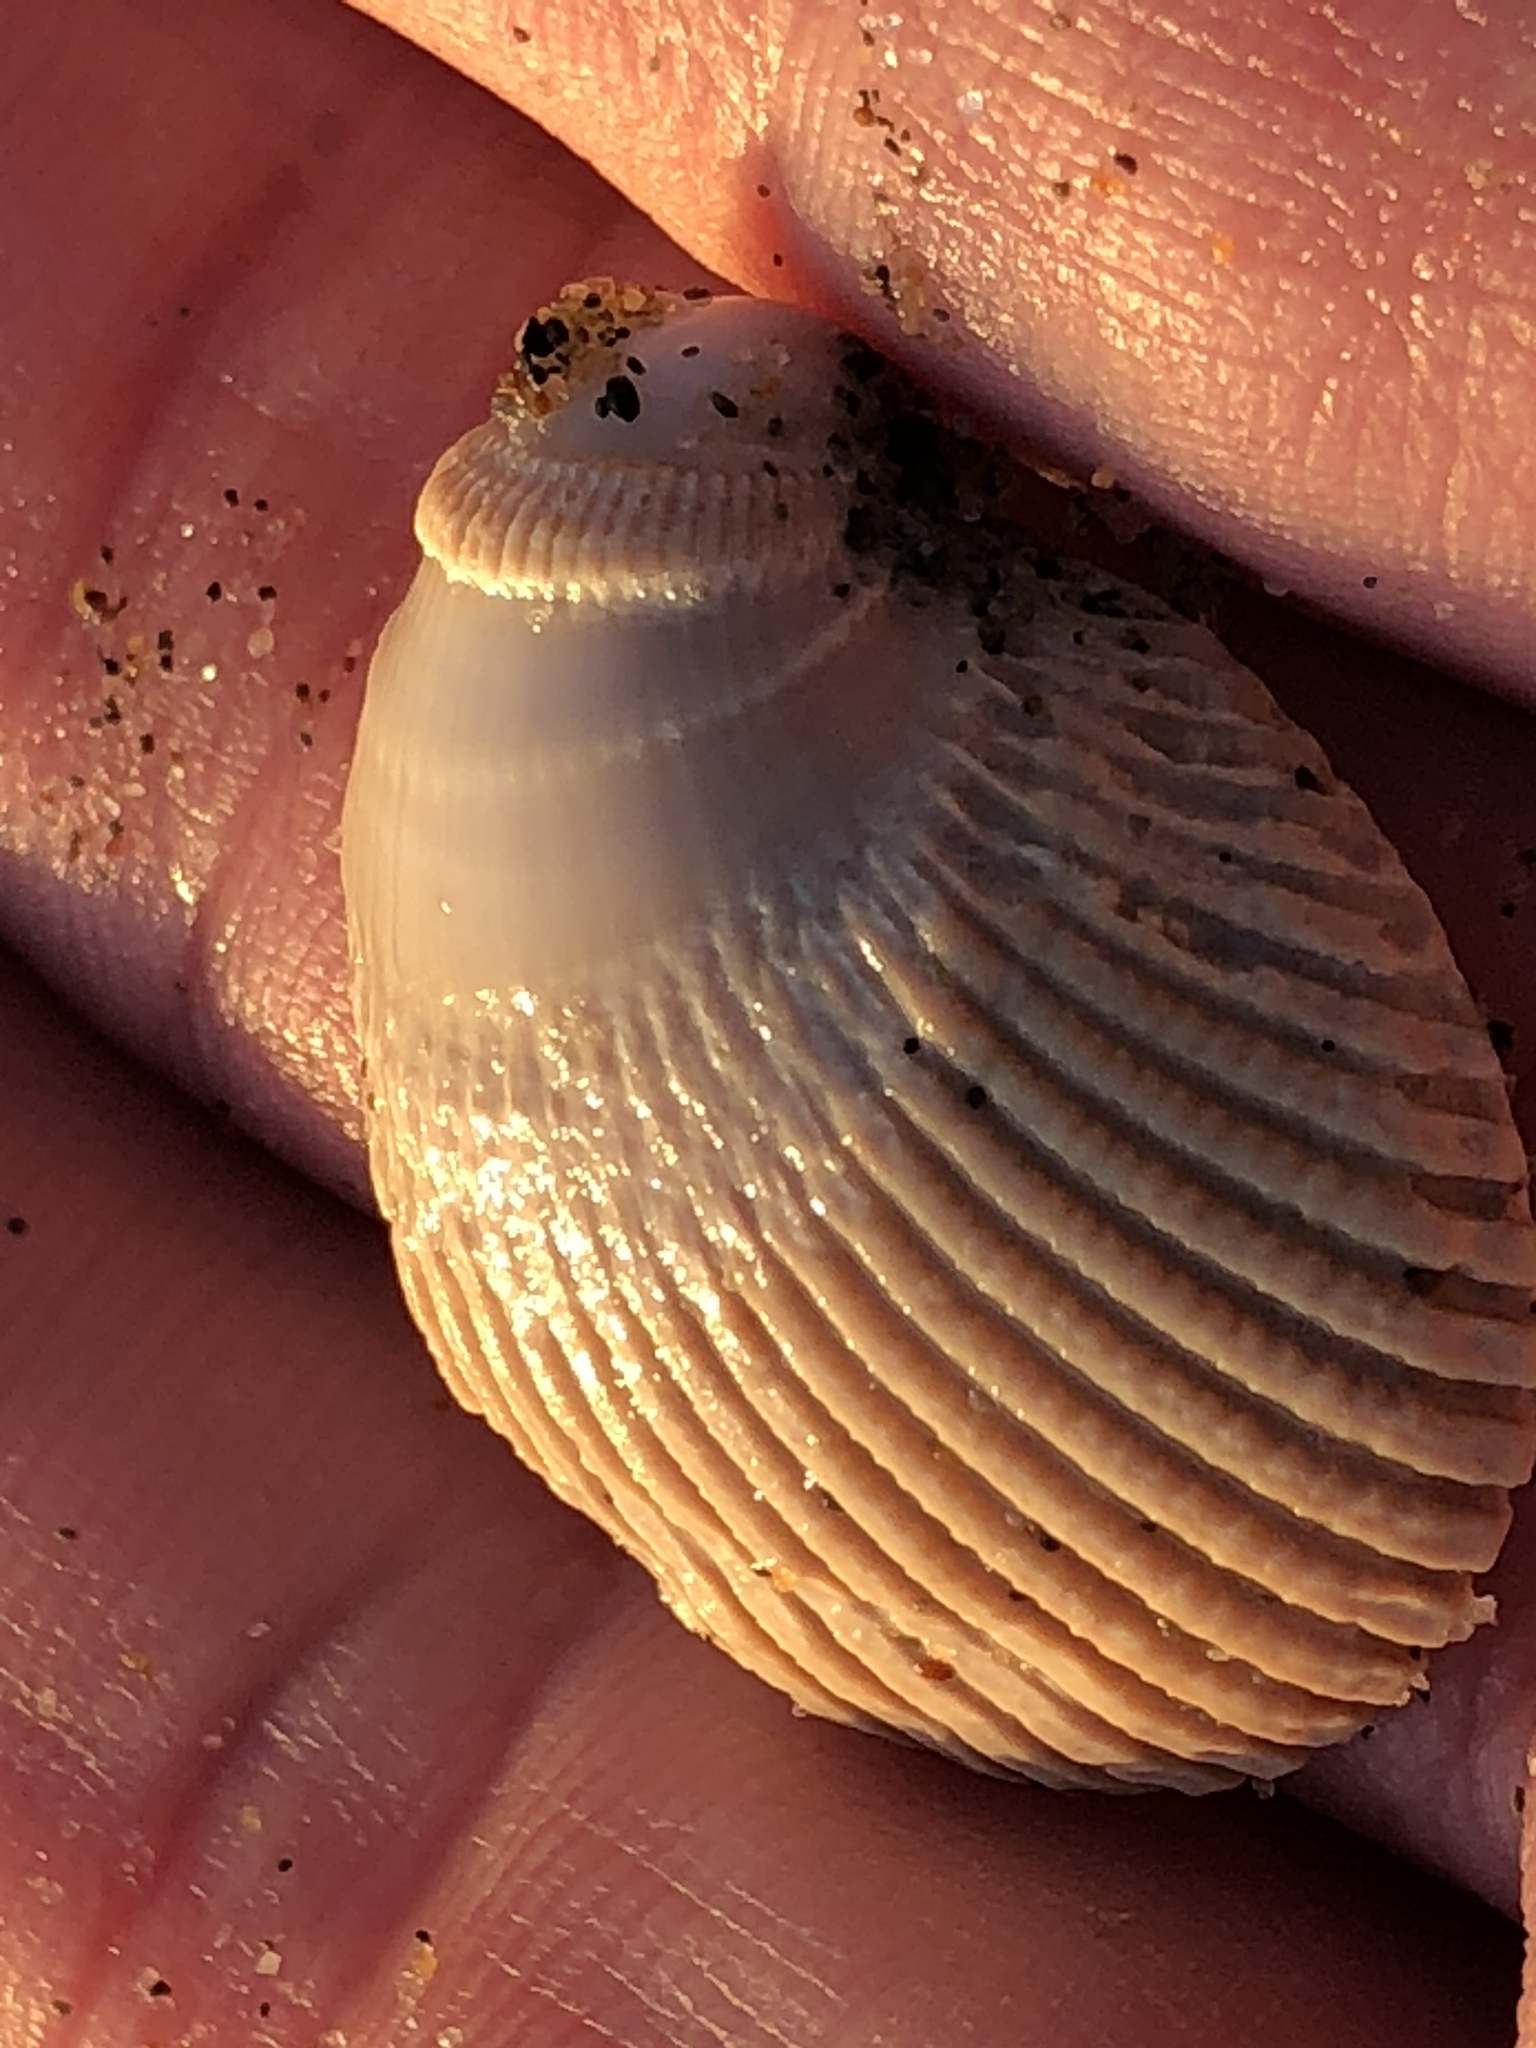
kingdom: Animalia
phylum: Mollusca
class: Bivalvia
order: Cardiida
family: Cardiidae
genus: Clinocardium
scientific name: Clinocardium nuttallii
